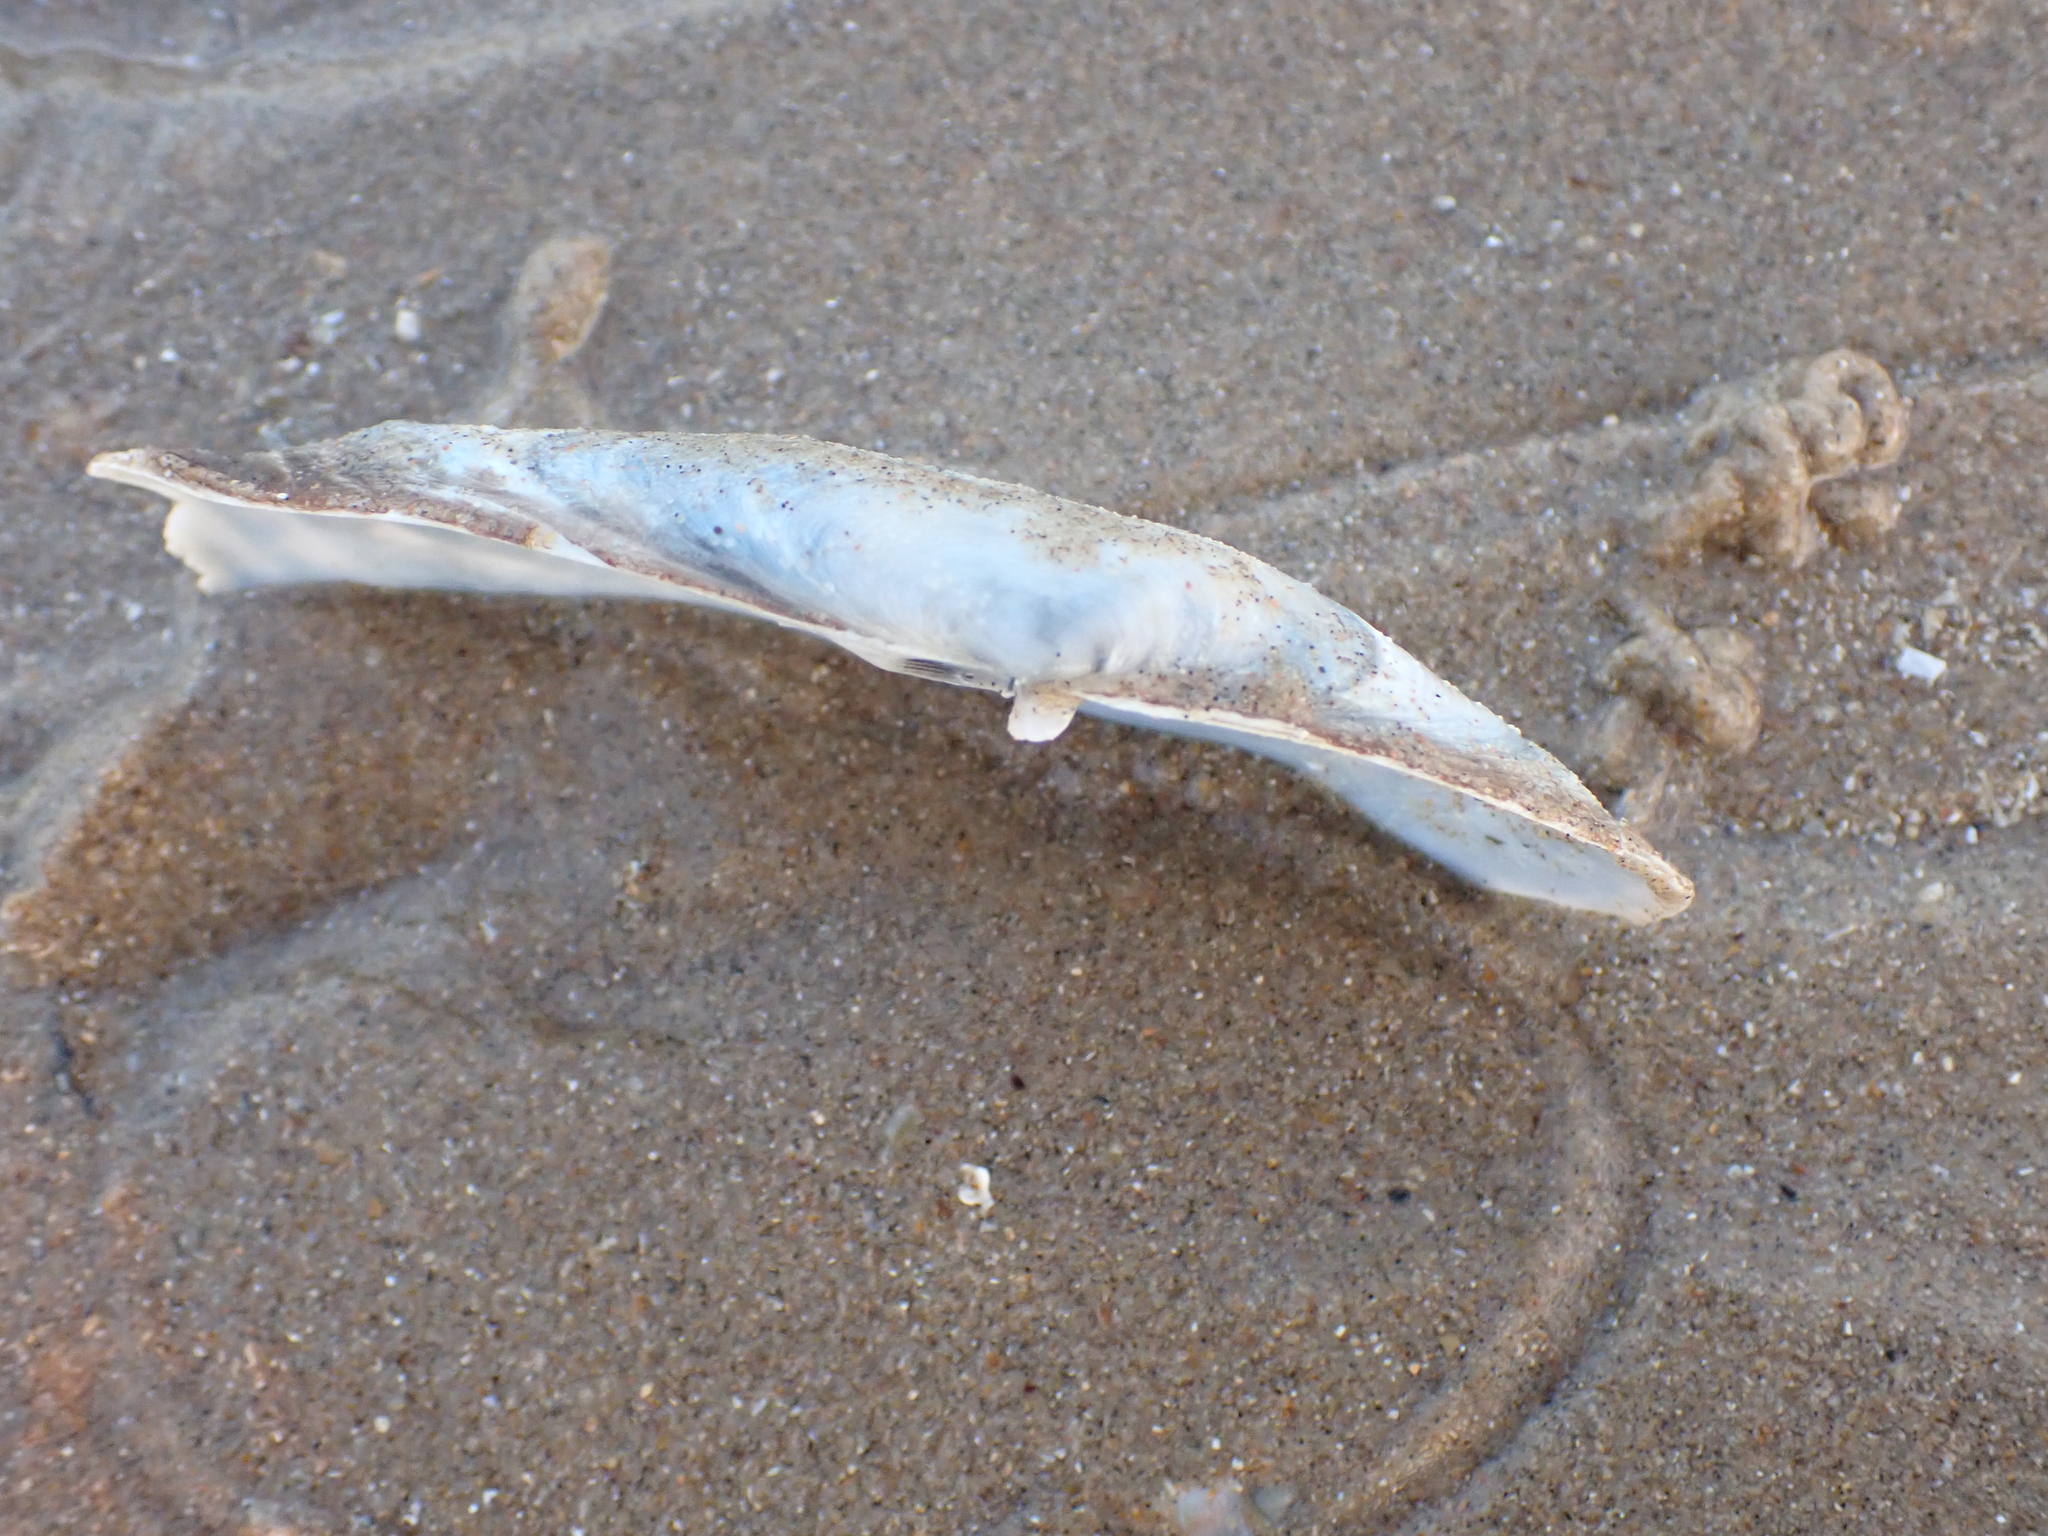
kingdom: Animalia
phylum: Mollusca
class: Bivalvia
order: Venerida
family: Mactridae
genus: Lutraria
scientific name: Lutraria lutraria
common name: Common otter shell
